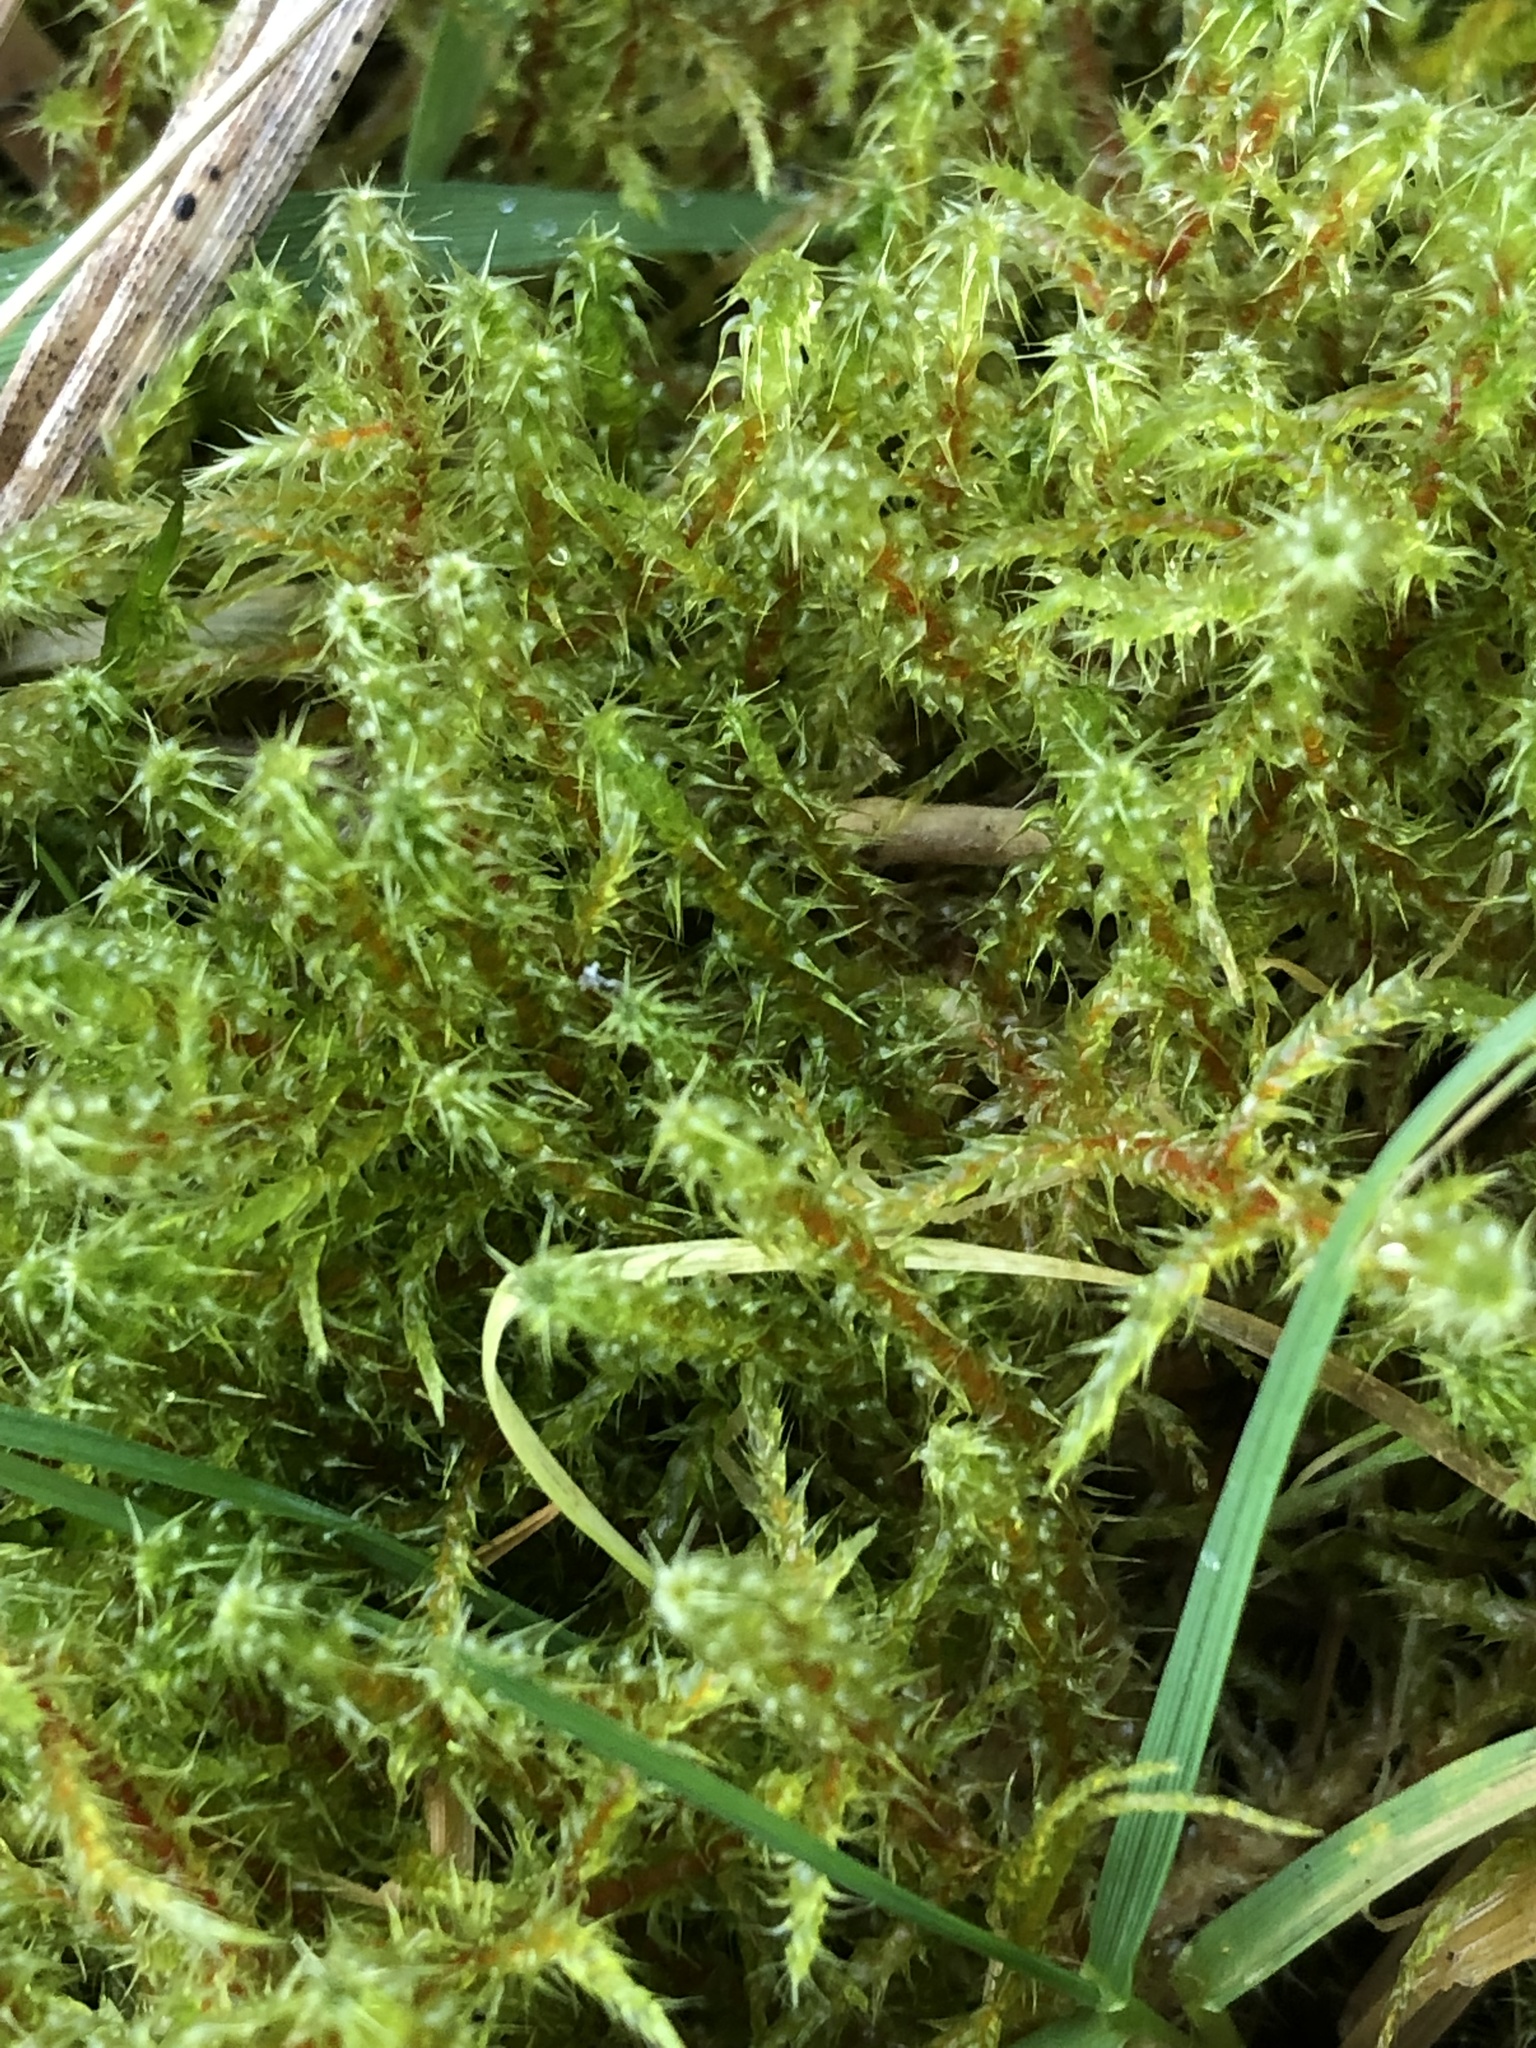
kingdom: Plantae
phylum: Bryophyta
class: Bryopsida
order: Hypnales
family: Hylocomiaceae
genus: Rhytidiadelphus
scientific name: Rhytidiadelphus squarrosus
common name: Springy turf-moss
